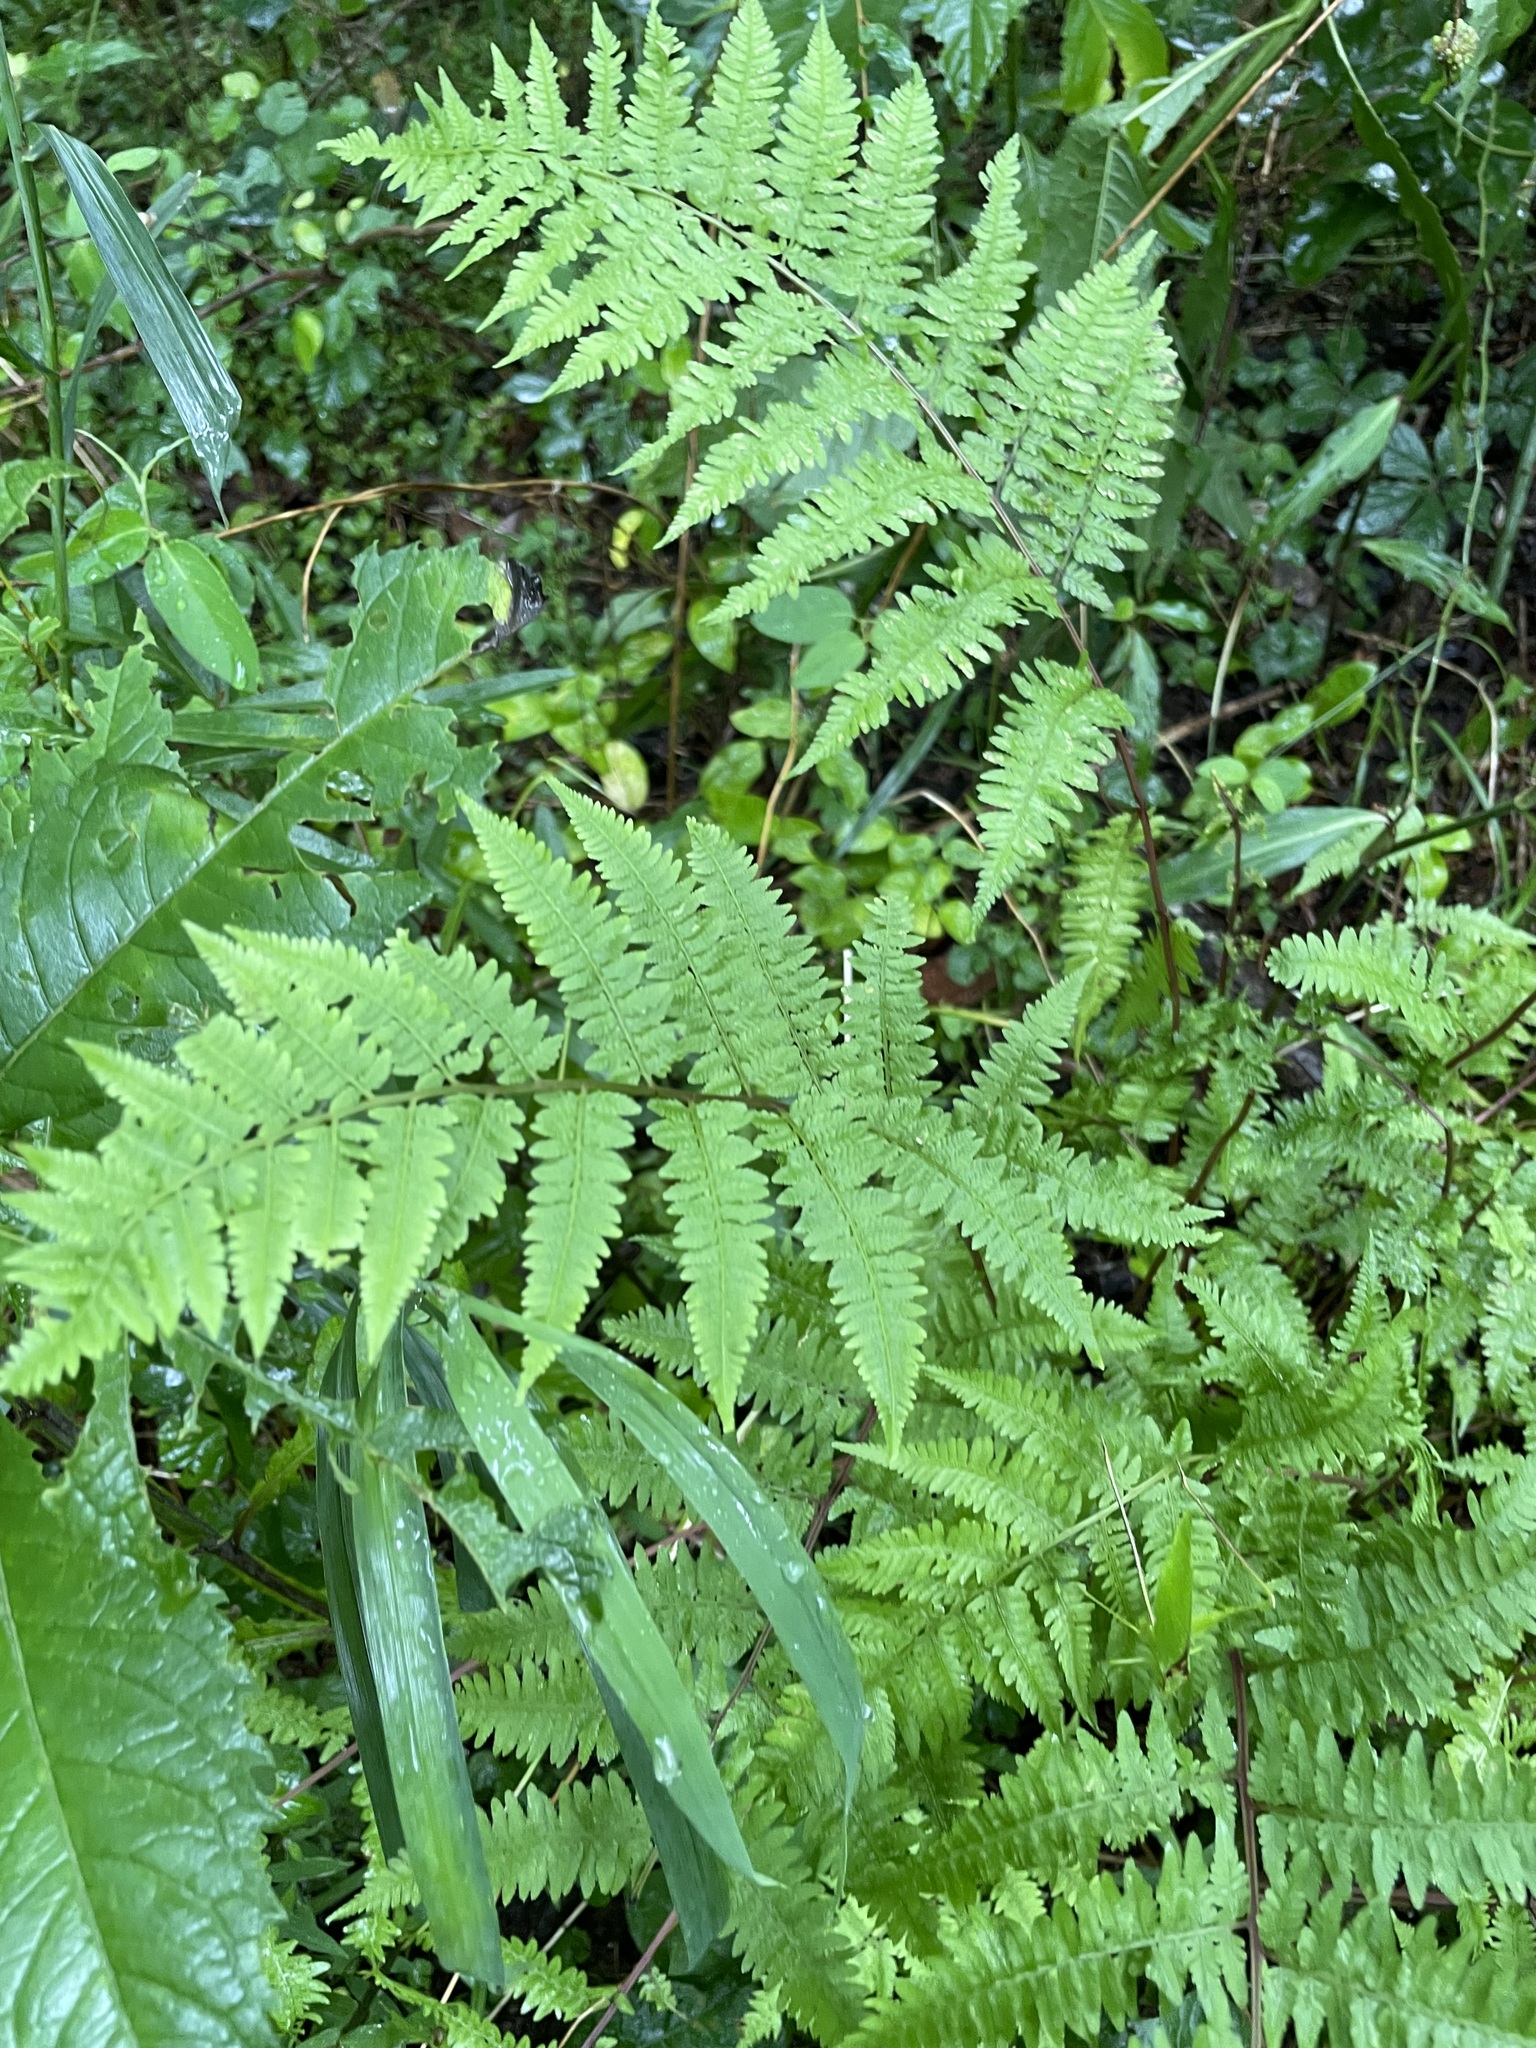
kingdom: Plantae
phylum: Tracheophyta
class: Polypodiopsida
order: Polypodiales
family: Athyriaceae
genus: Athyrium
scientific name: Athyrium asplenioides
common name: Southern lady fern
